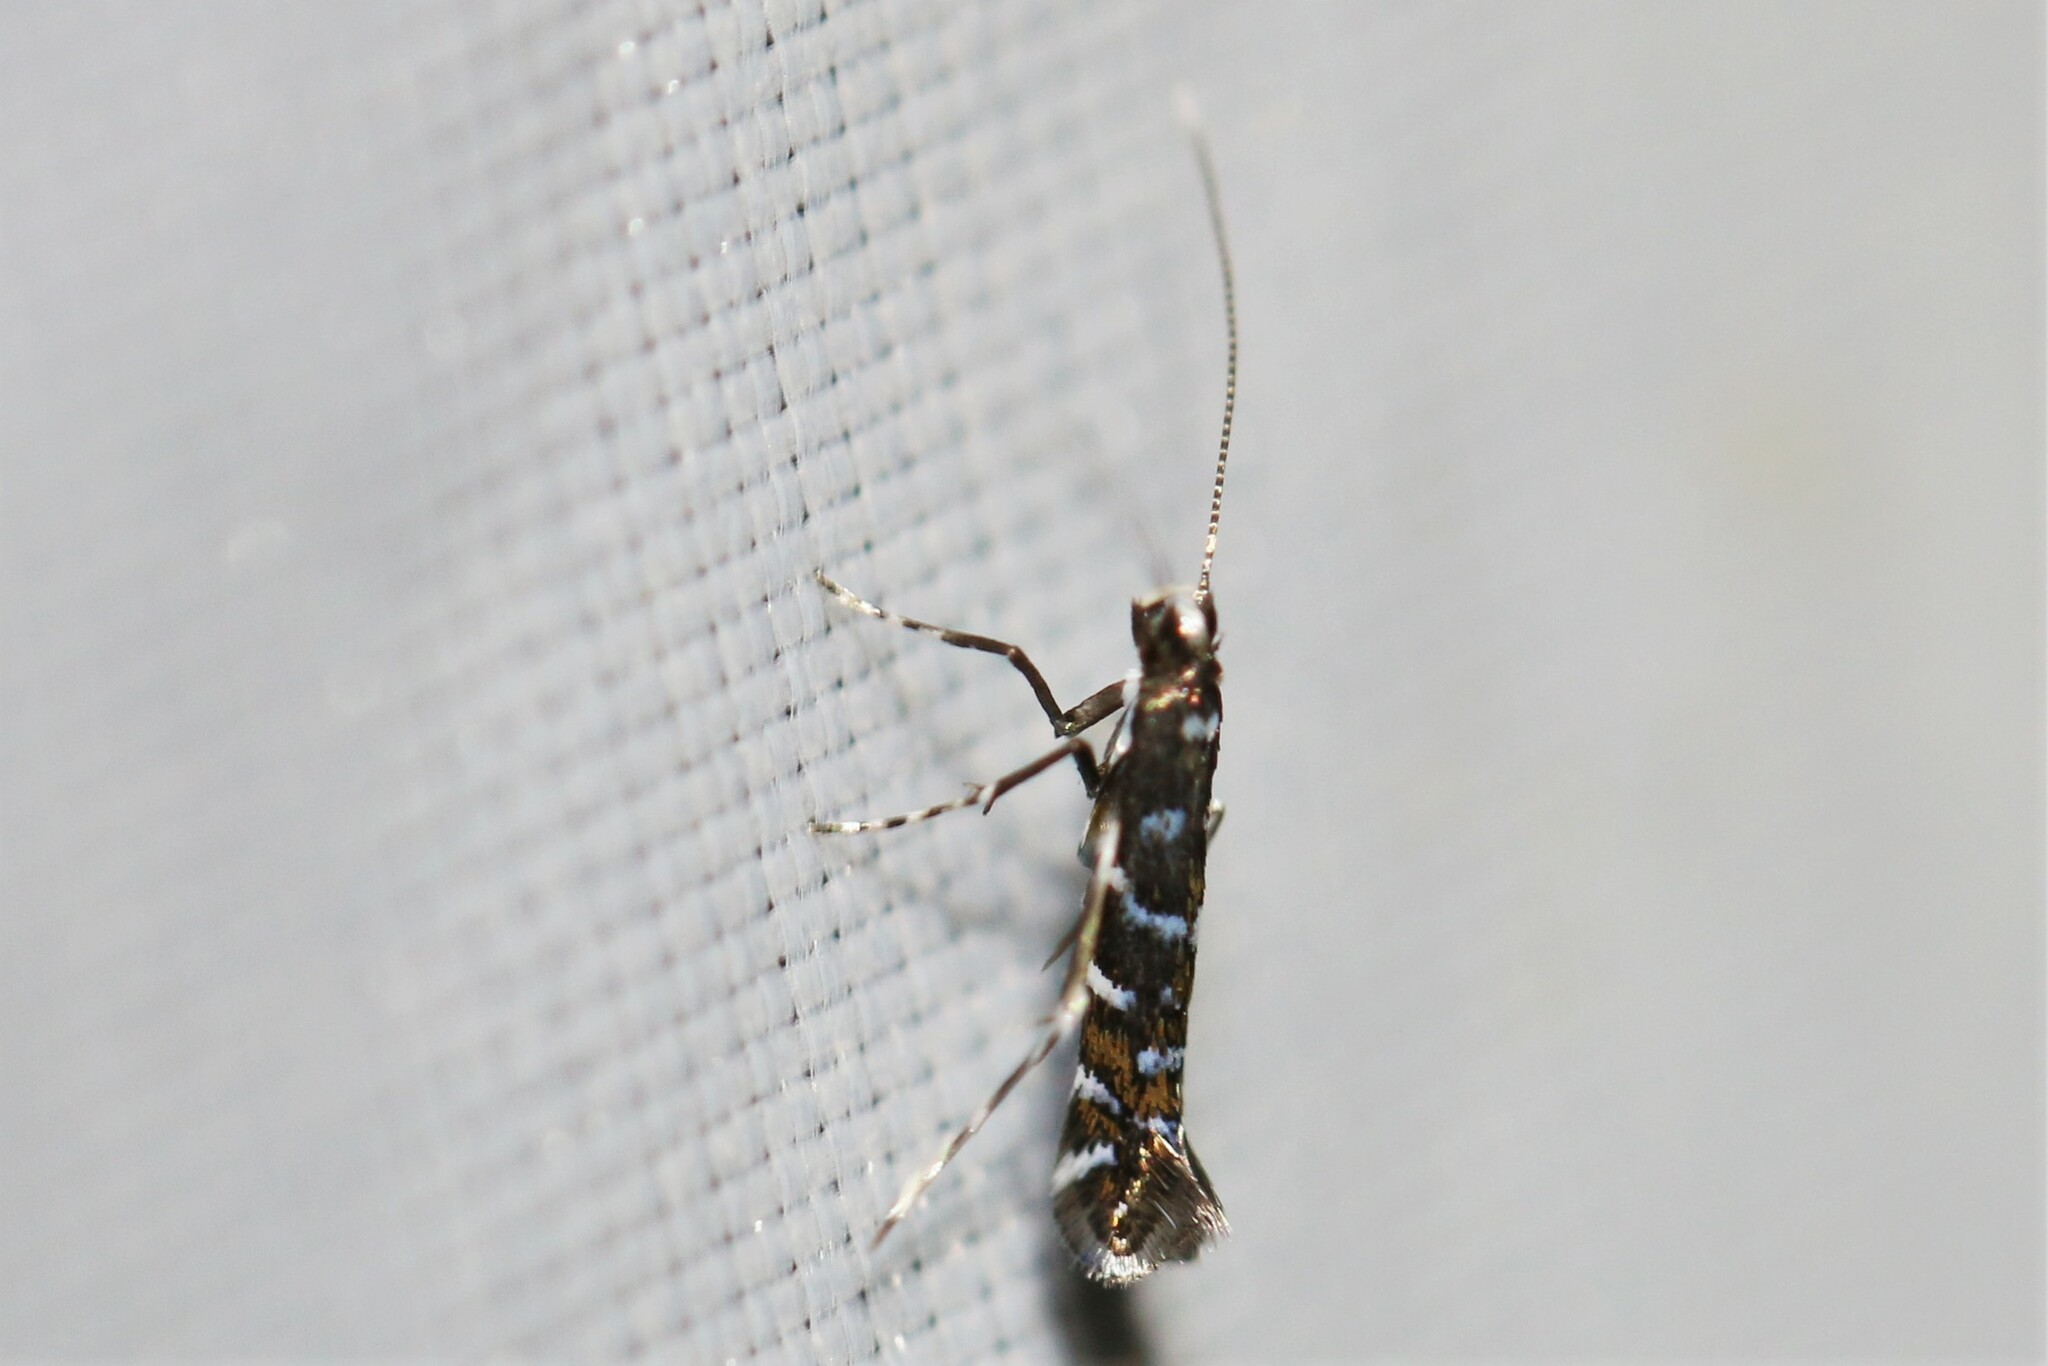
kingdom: Animalia
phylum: Arthropoda
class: Insecta
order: Lepidoptera
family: Gracillariidae
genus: Parectopa
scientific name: Parectopa ononidis
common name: Clover slender
